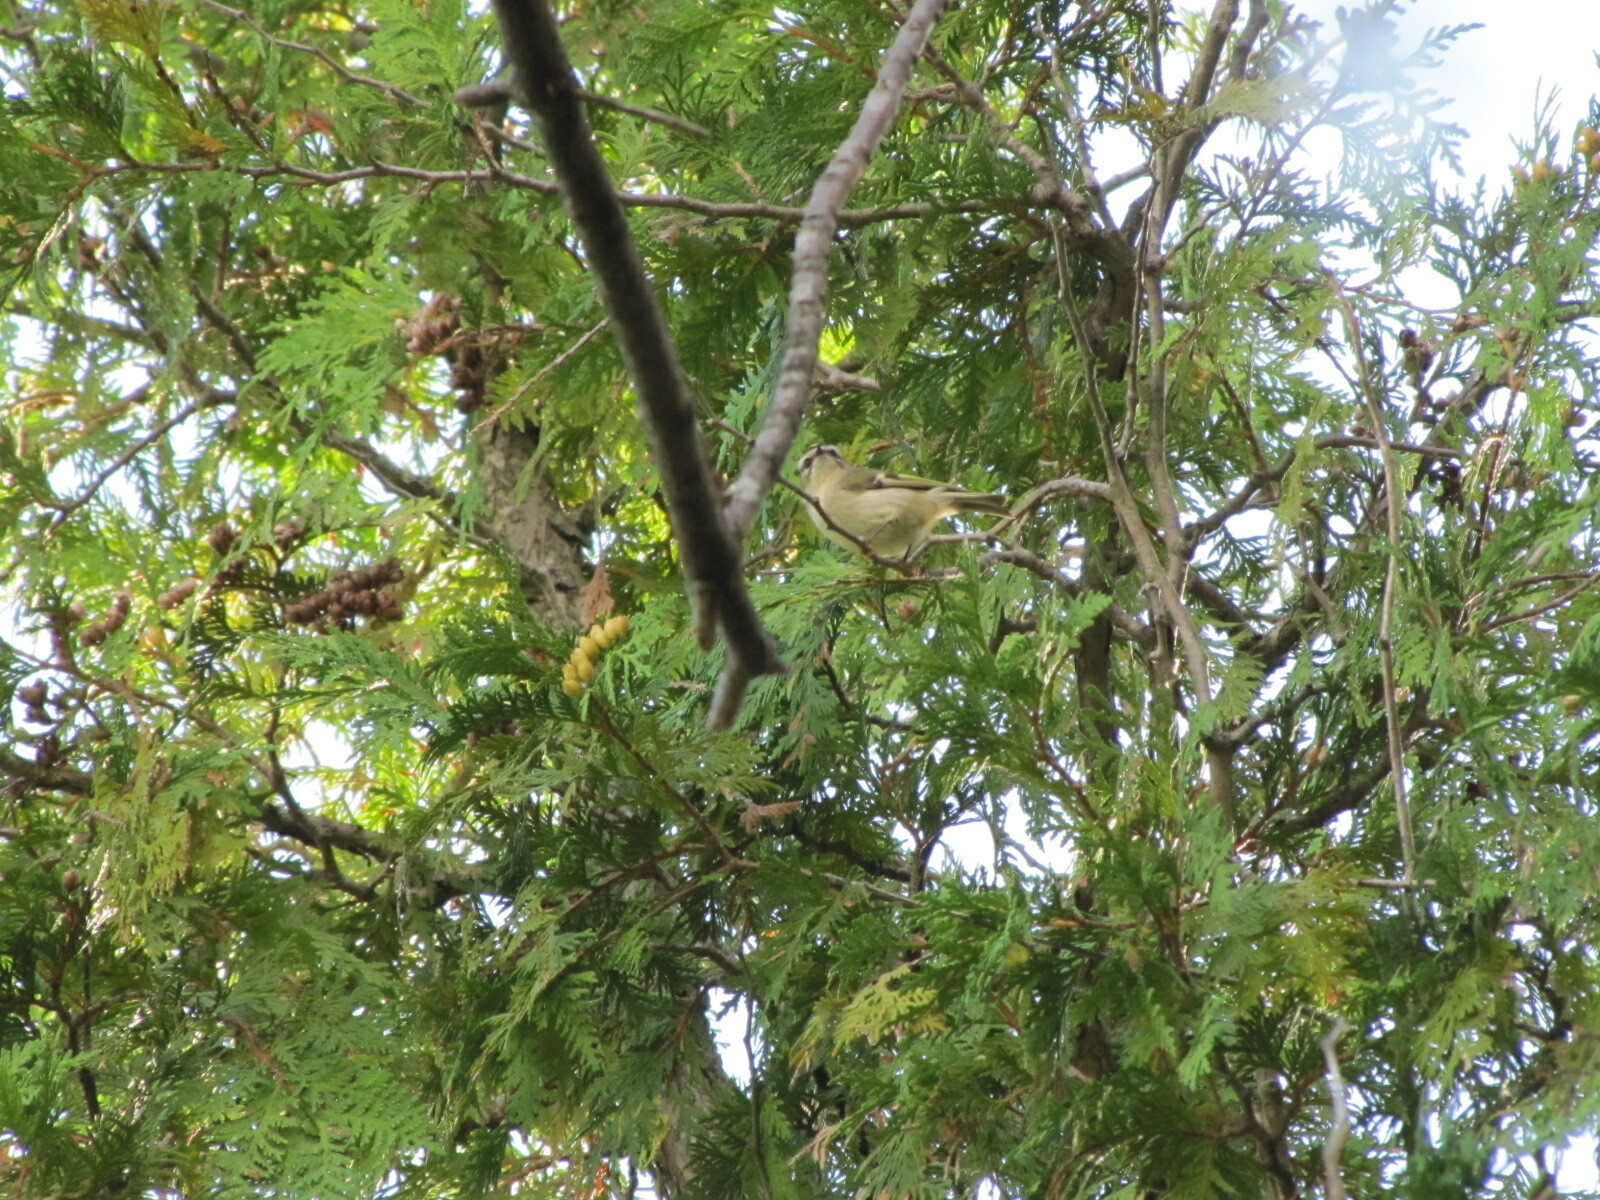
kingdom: Animalia
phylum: Chordata
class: Aves
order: Passeriformes
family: Regulidae
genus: Regulus
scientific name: Regulus satrapa
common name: Golden-crowned kinglet
